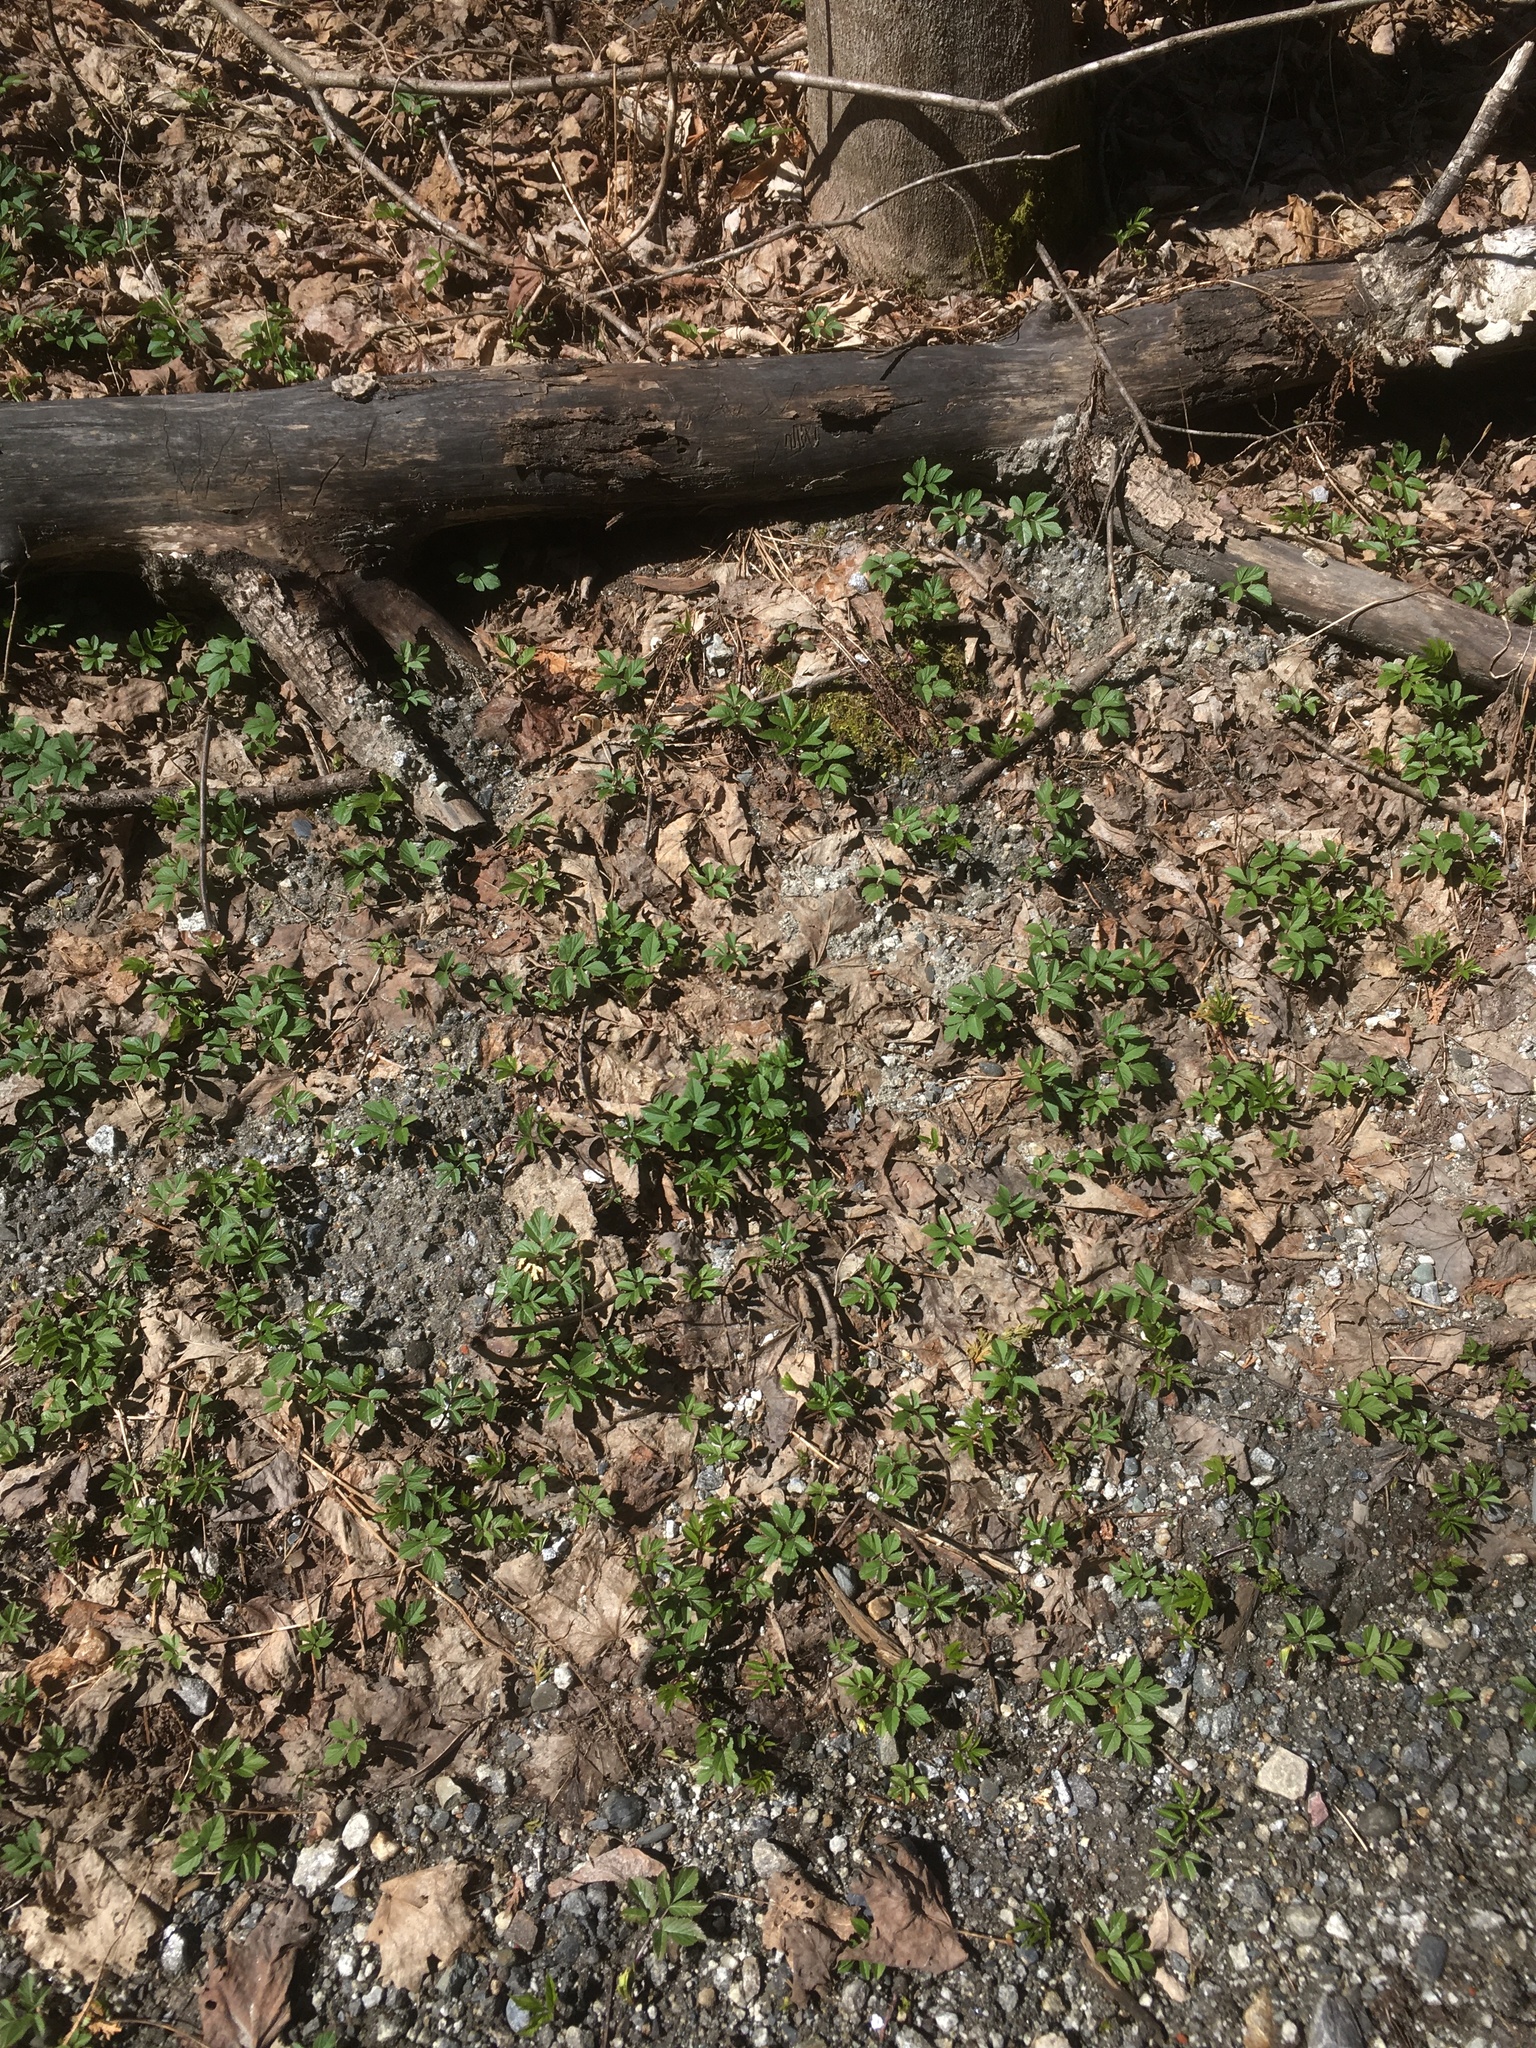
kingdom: Plantae
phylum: Tracheophyta
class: Magnoliopsida
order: Apiales
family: Apiaceae
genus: Aegopodium
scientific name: Aegopodium podagraria
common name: Ground-elder
